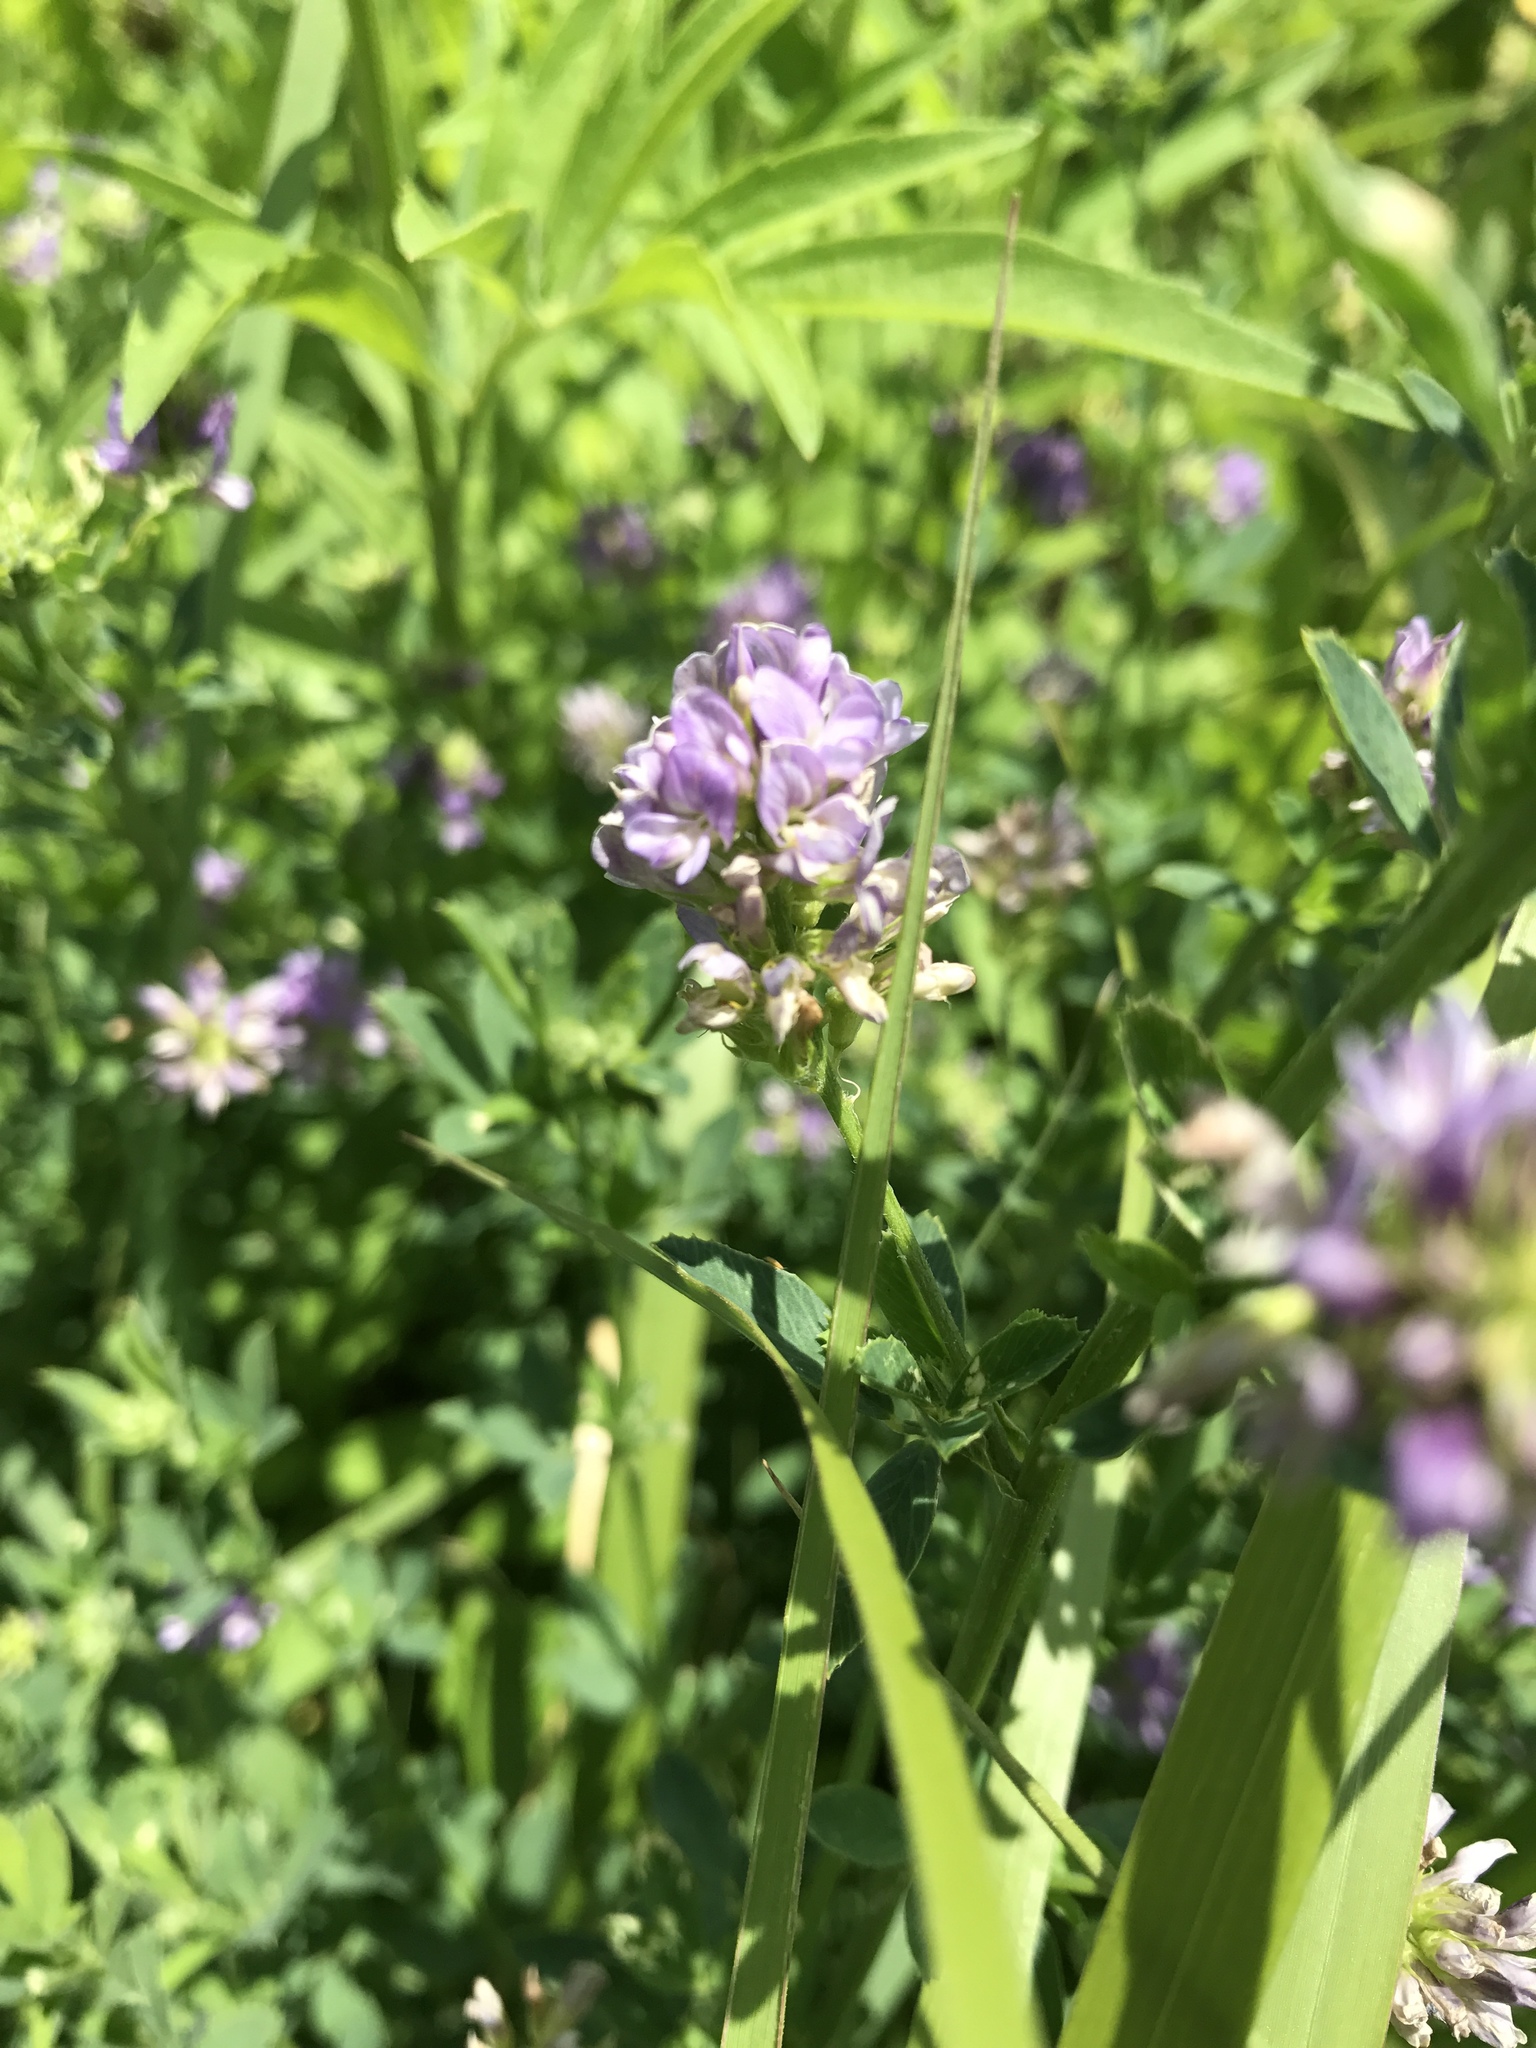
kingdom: Plantae
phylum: Tracheophyta
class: Magnoliopsida
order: Fabales
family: Fabaceae
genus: Medicago
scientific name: Medicago sativa
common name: Alfalfa
